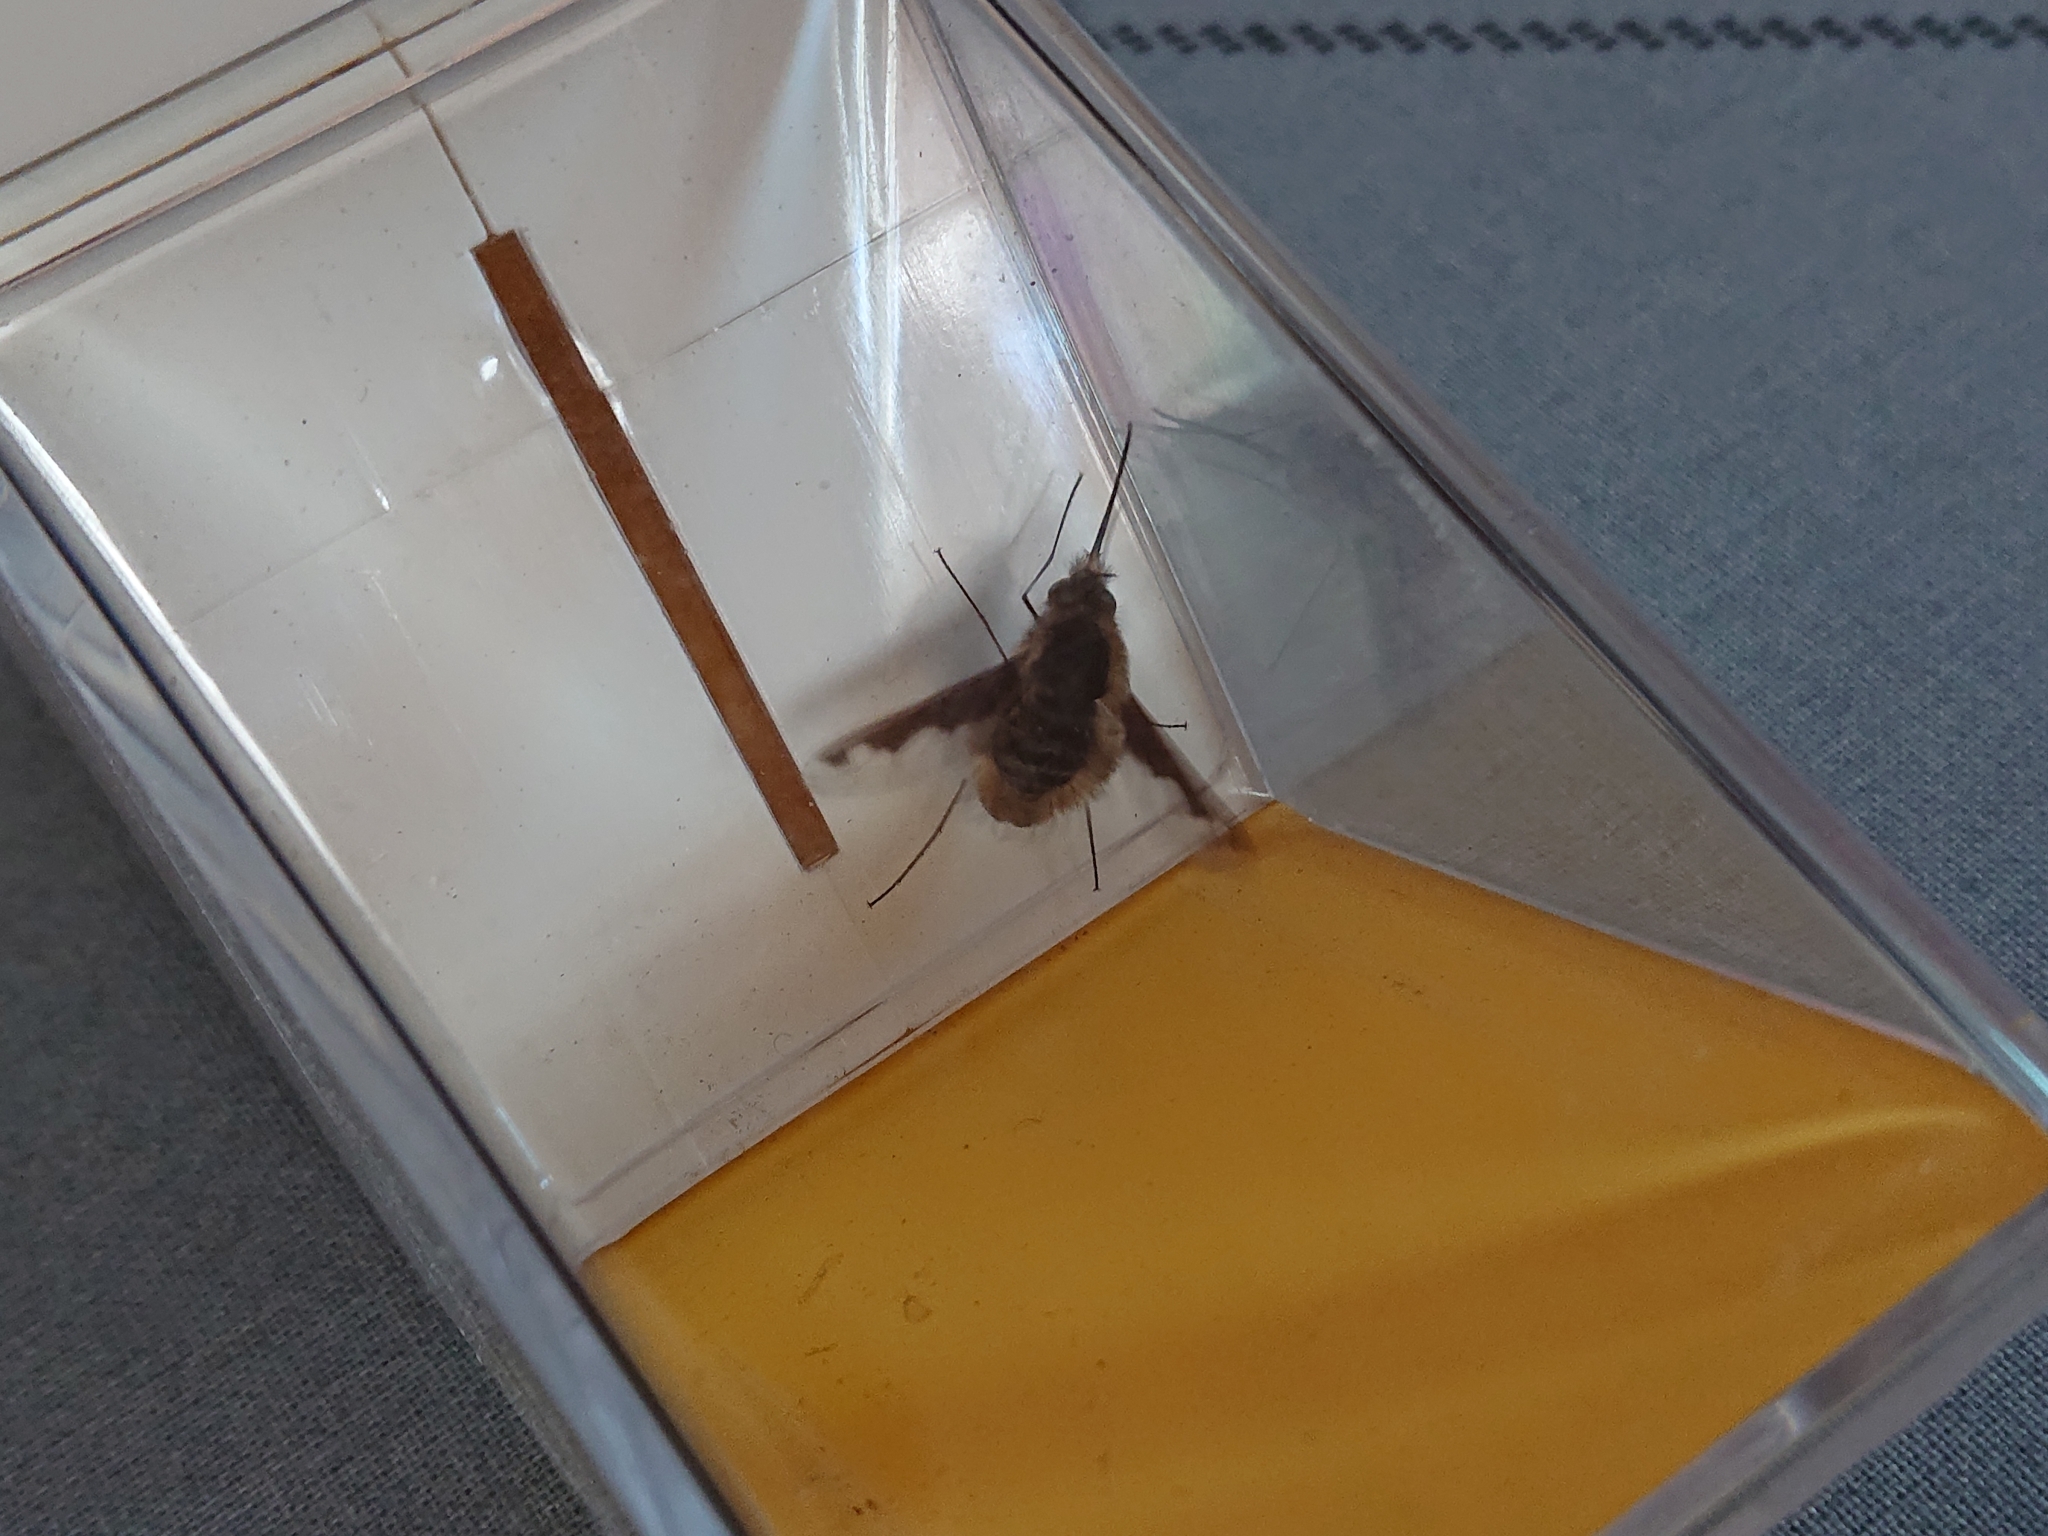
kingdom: Animalia
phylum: Arthropoda
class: Insecta
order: Diptera
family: Bombyliidae
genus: Bombylius
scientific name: Bombylius major
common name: Bee fly
